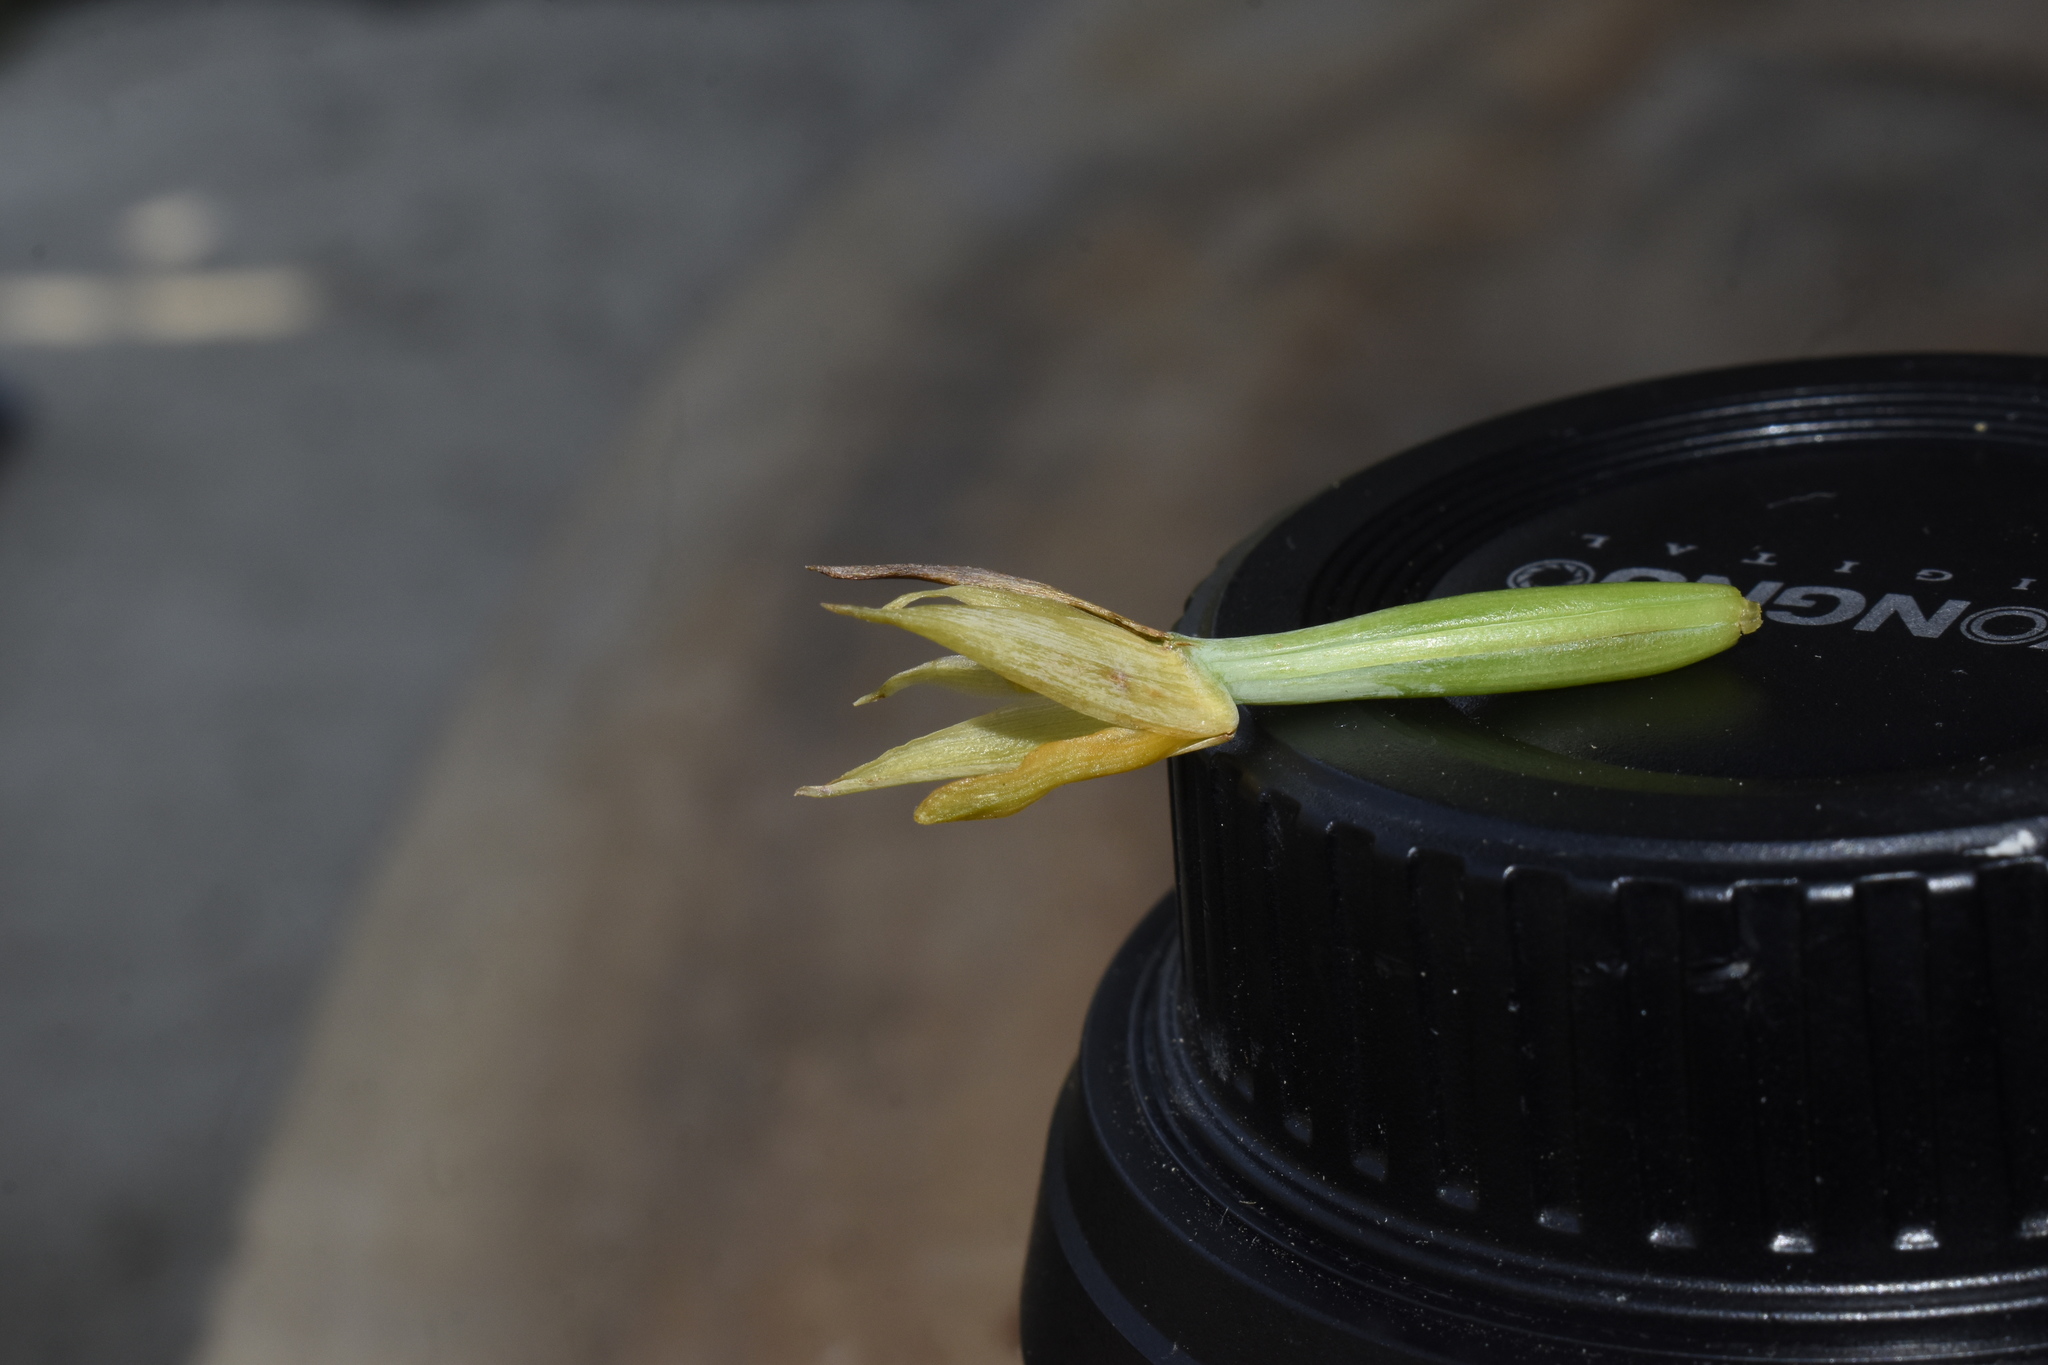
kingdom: Plantae
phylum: Tracheophyta
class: Liliopsida
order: Asparagales
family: Orchidaceae
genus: Maxillaria
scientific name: Maxillaria witsenioides
